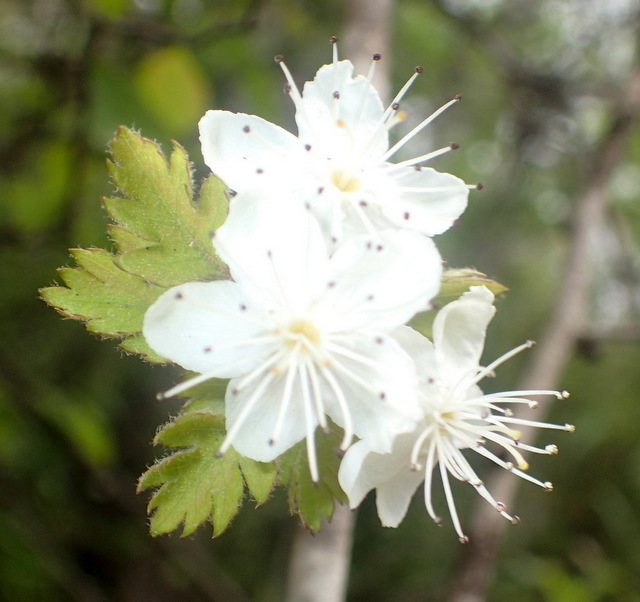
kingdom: Plantae
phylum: Tracheophyta
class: Magnoliopsida
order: Rosales
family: Rosaceae
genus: Crataegus
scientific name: Crataegus marshallii
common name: Parsley-hawthorn
